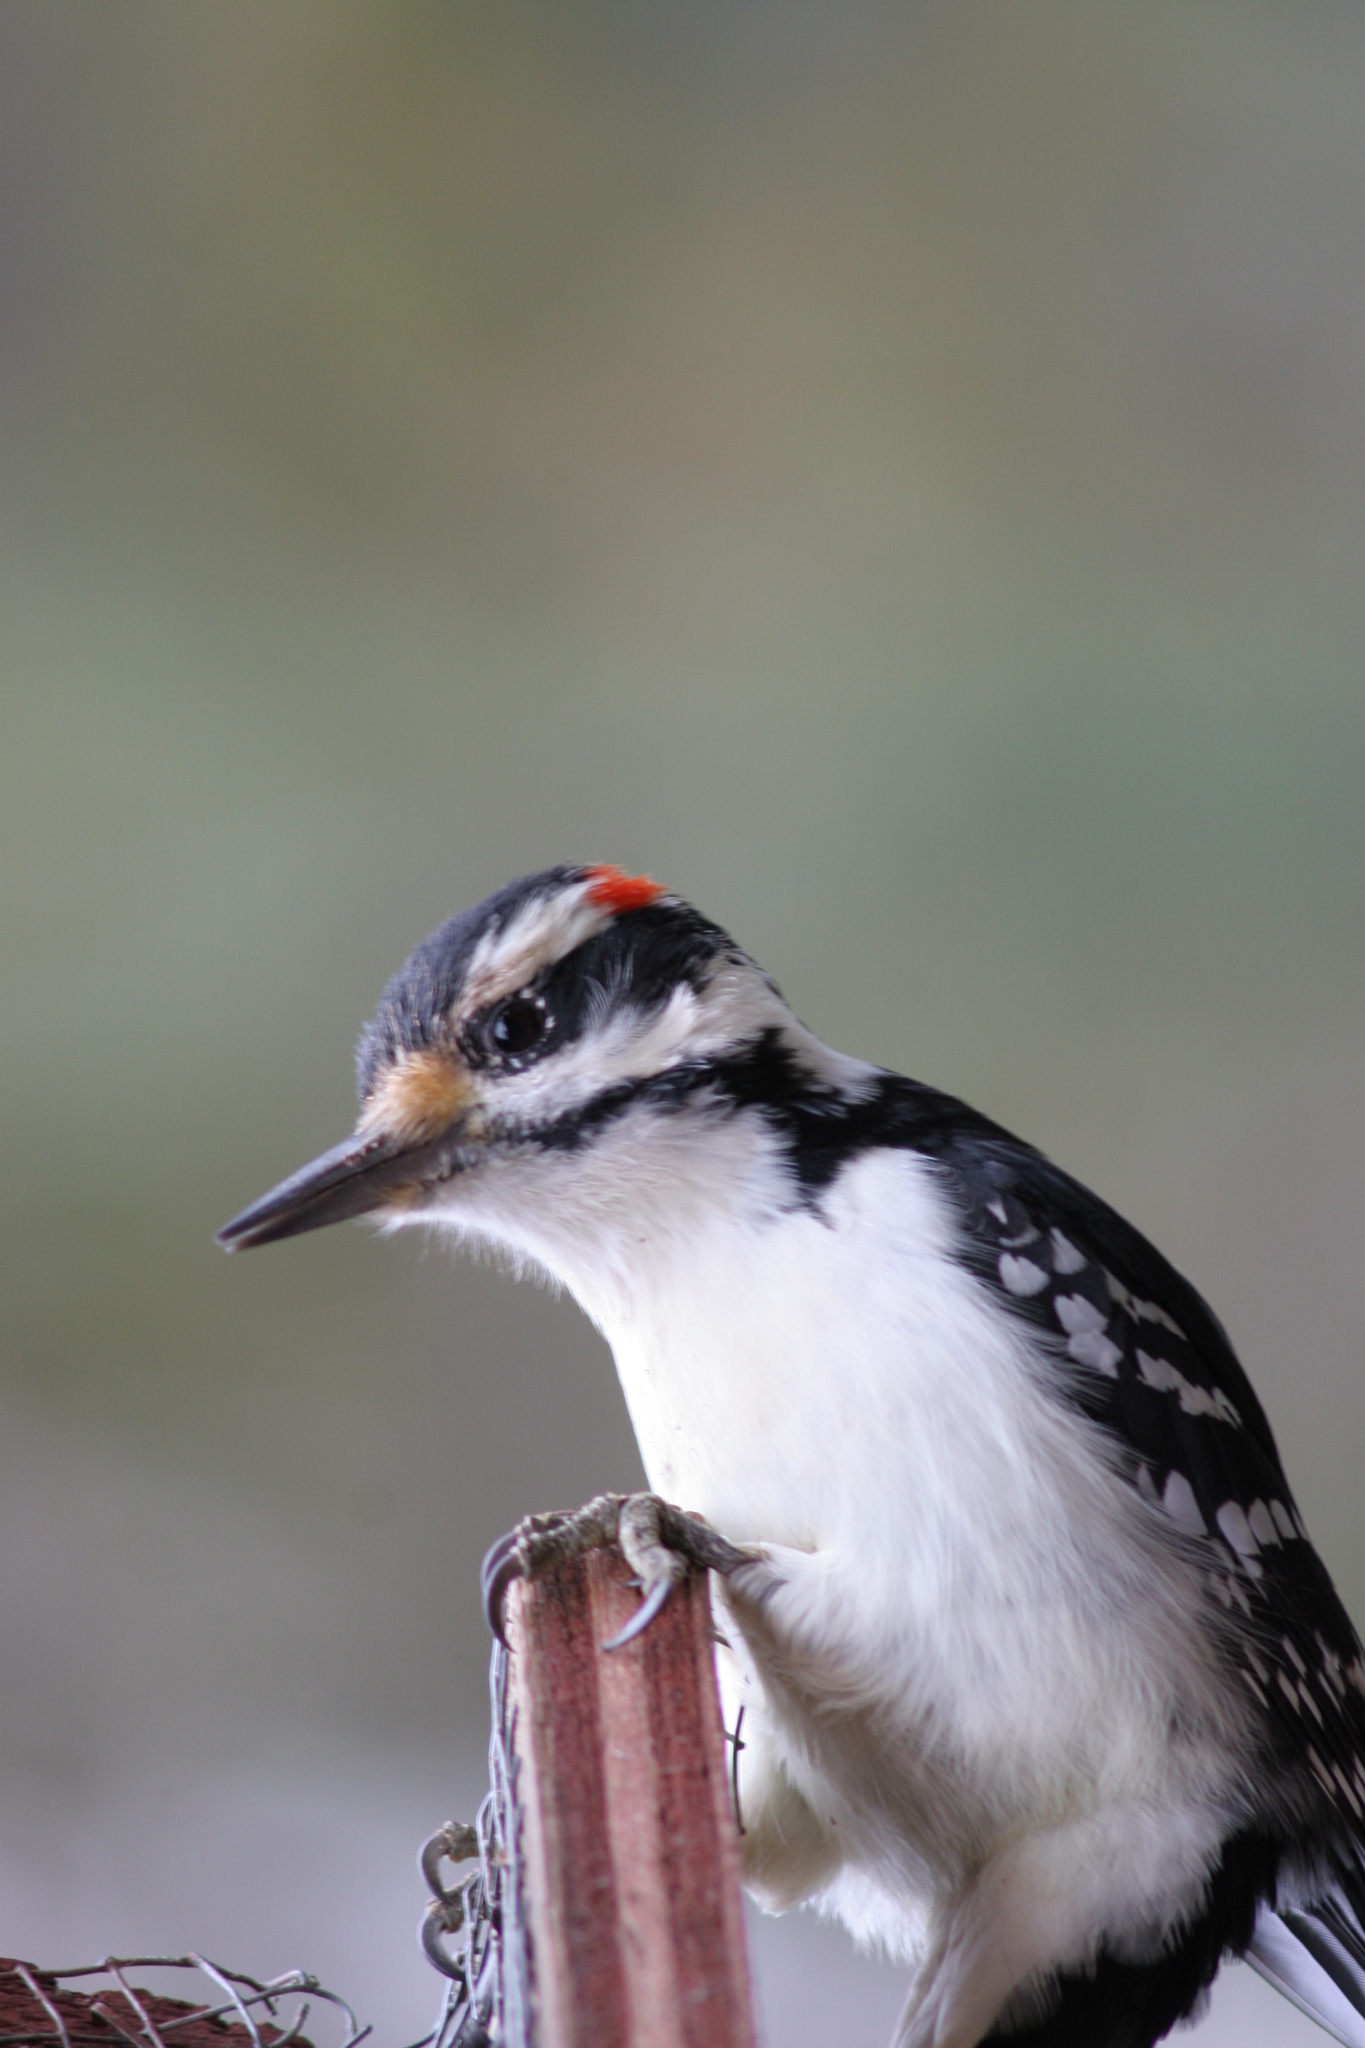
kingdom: Animalia
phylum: Chordata
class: Aves
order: Piciformes
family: Picidae
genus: Leuconotopicus
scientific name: Leuconotopicus villosus
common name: Hairy woodpecker
